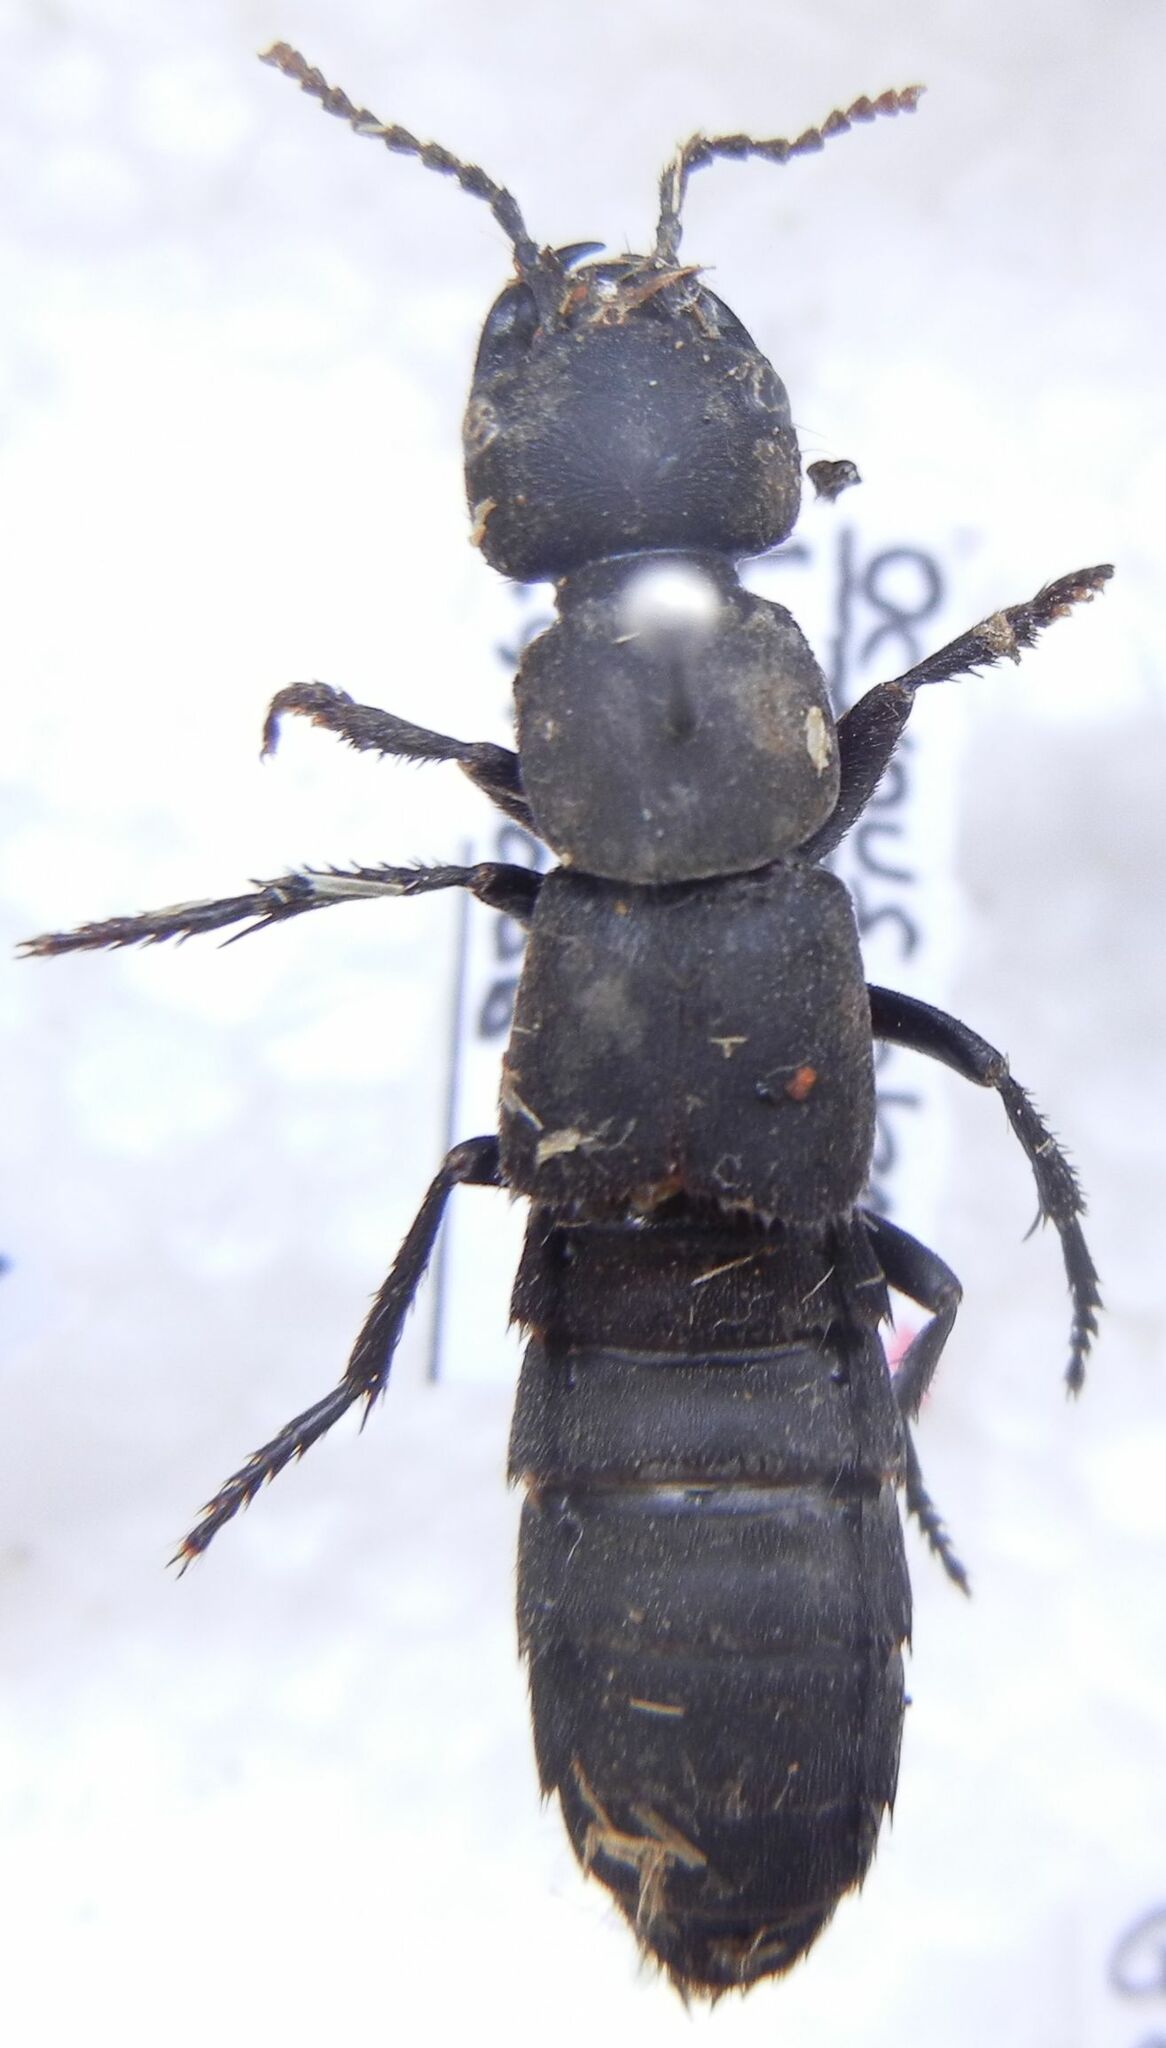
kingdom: Animalia
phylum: Arthropoda
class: Insecta
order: Coleoptera
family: Staphylinidae
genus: Ocypus
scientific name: Ocypus olens
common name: Devil's coach-horse
